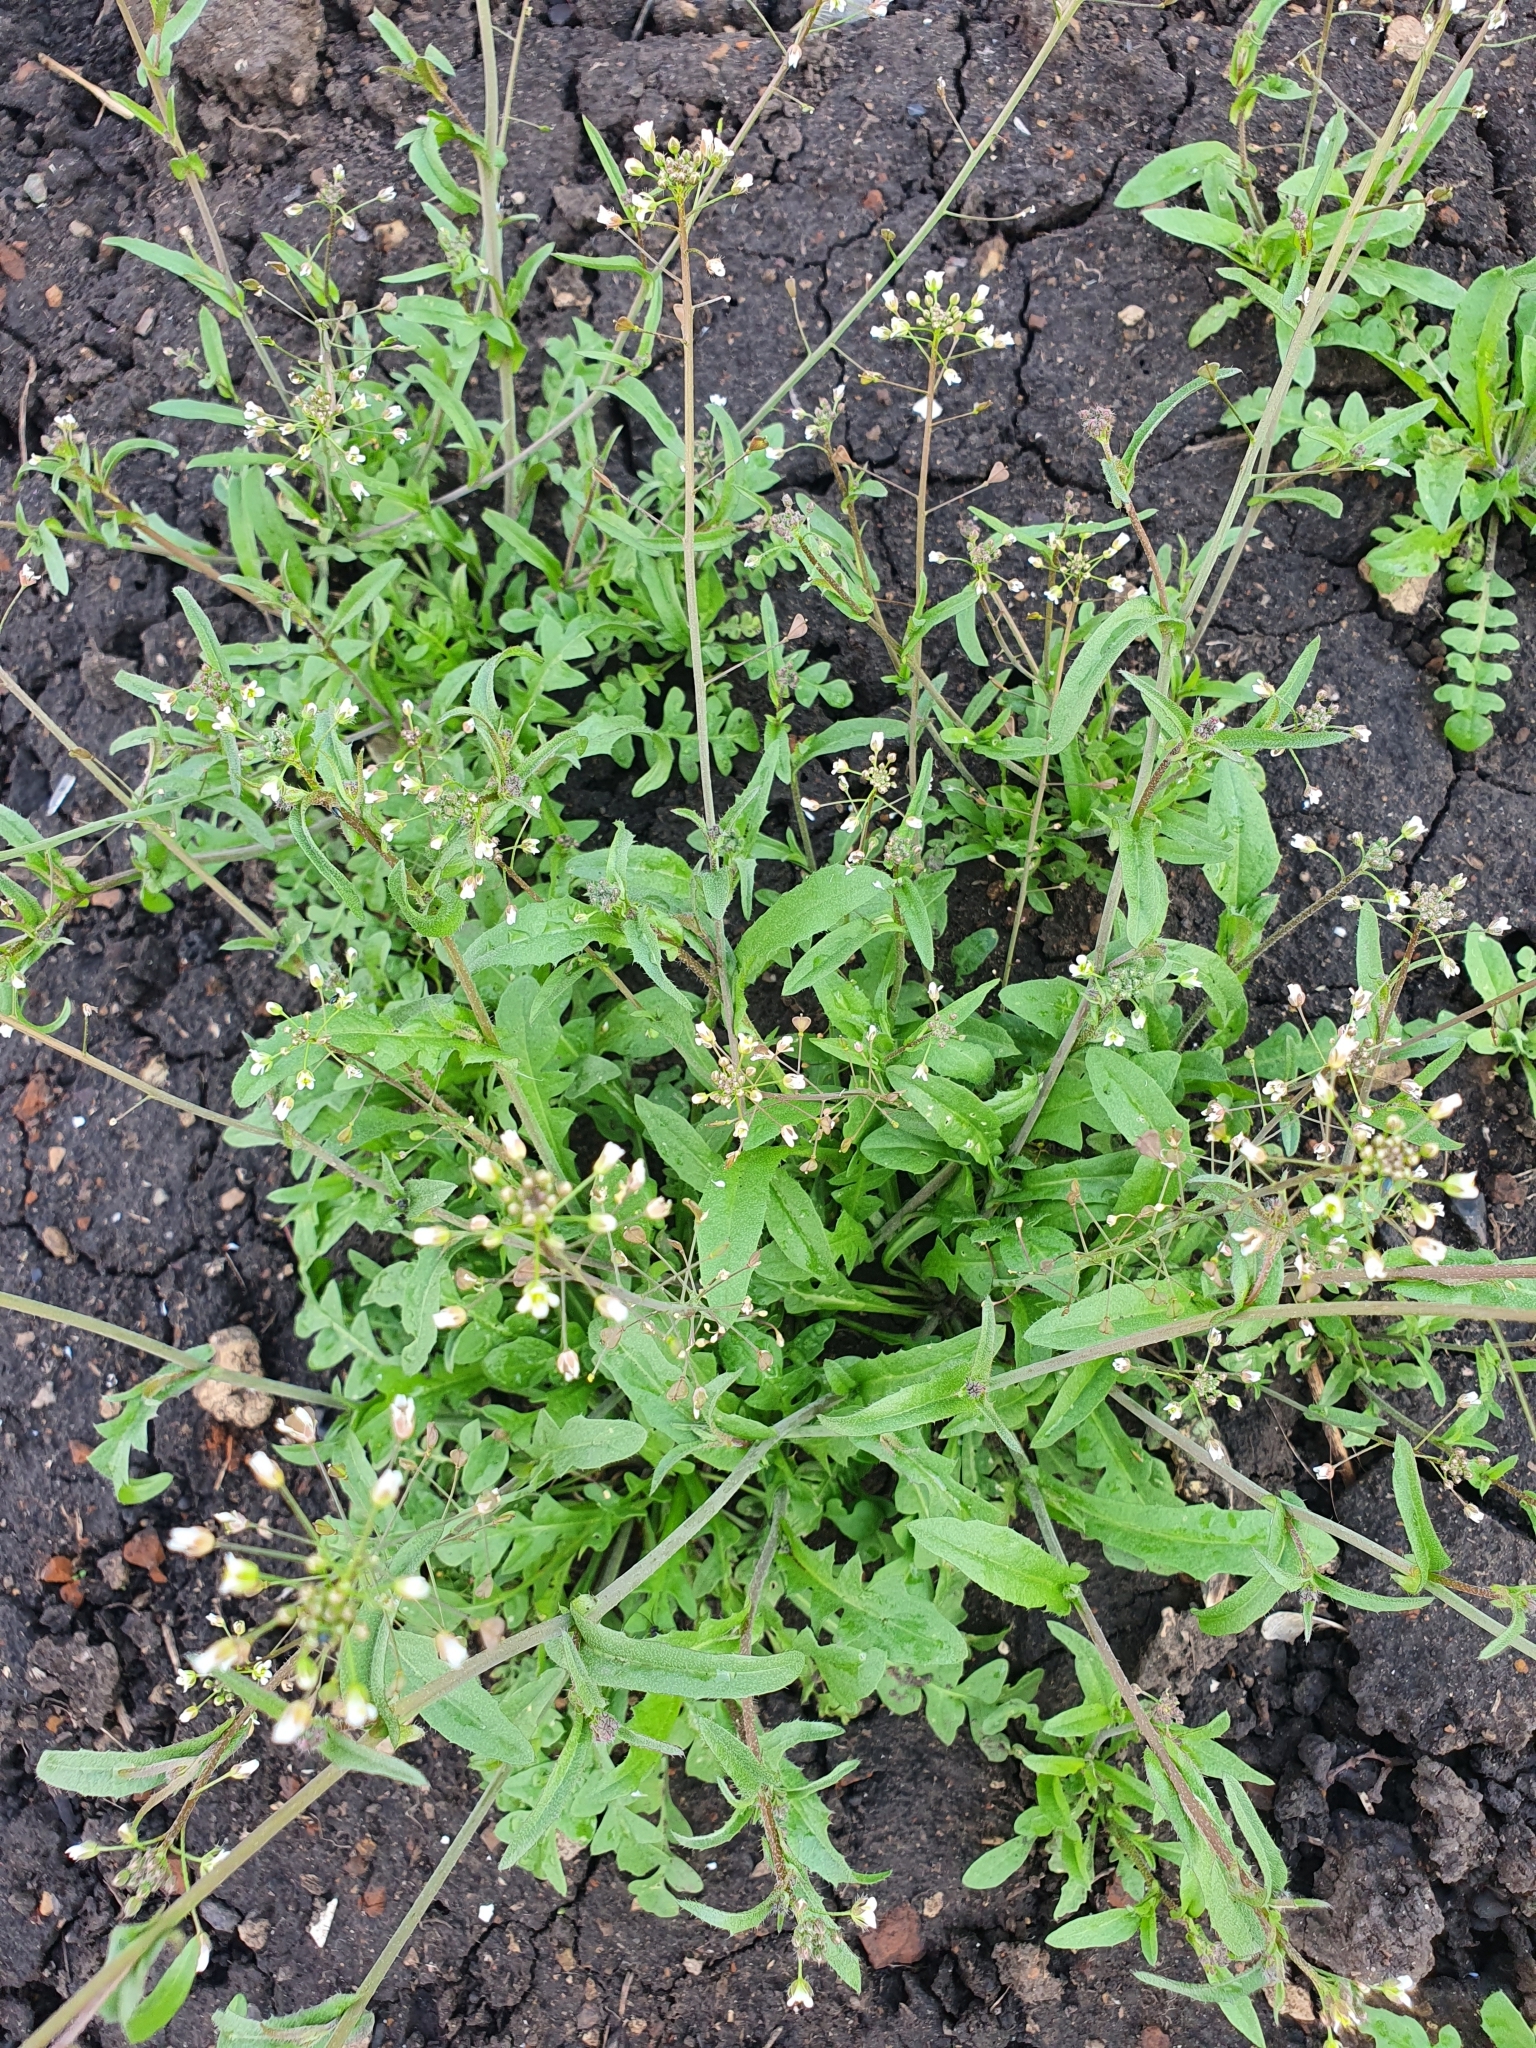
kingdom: Plantae
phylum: Tracheophyta
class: Magnoliopsida
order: Brassicales
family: Brassicaceae
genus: Capsella
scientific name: Capsella bursa-pastoris
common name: Shepherd's purse
